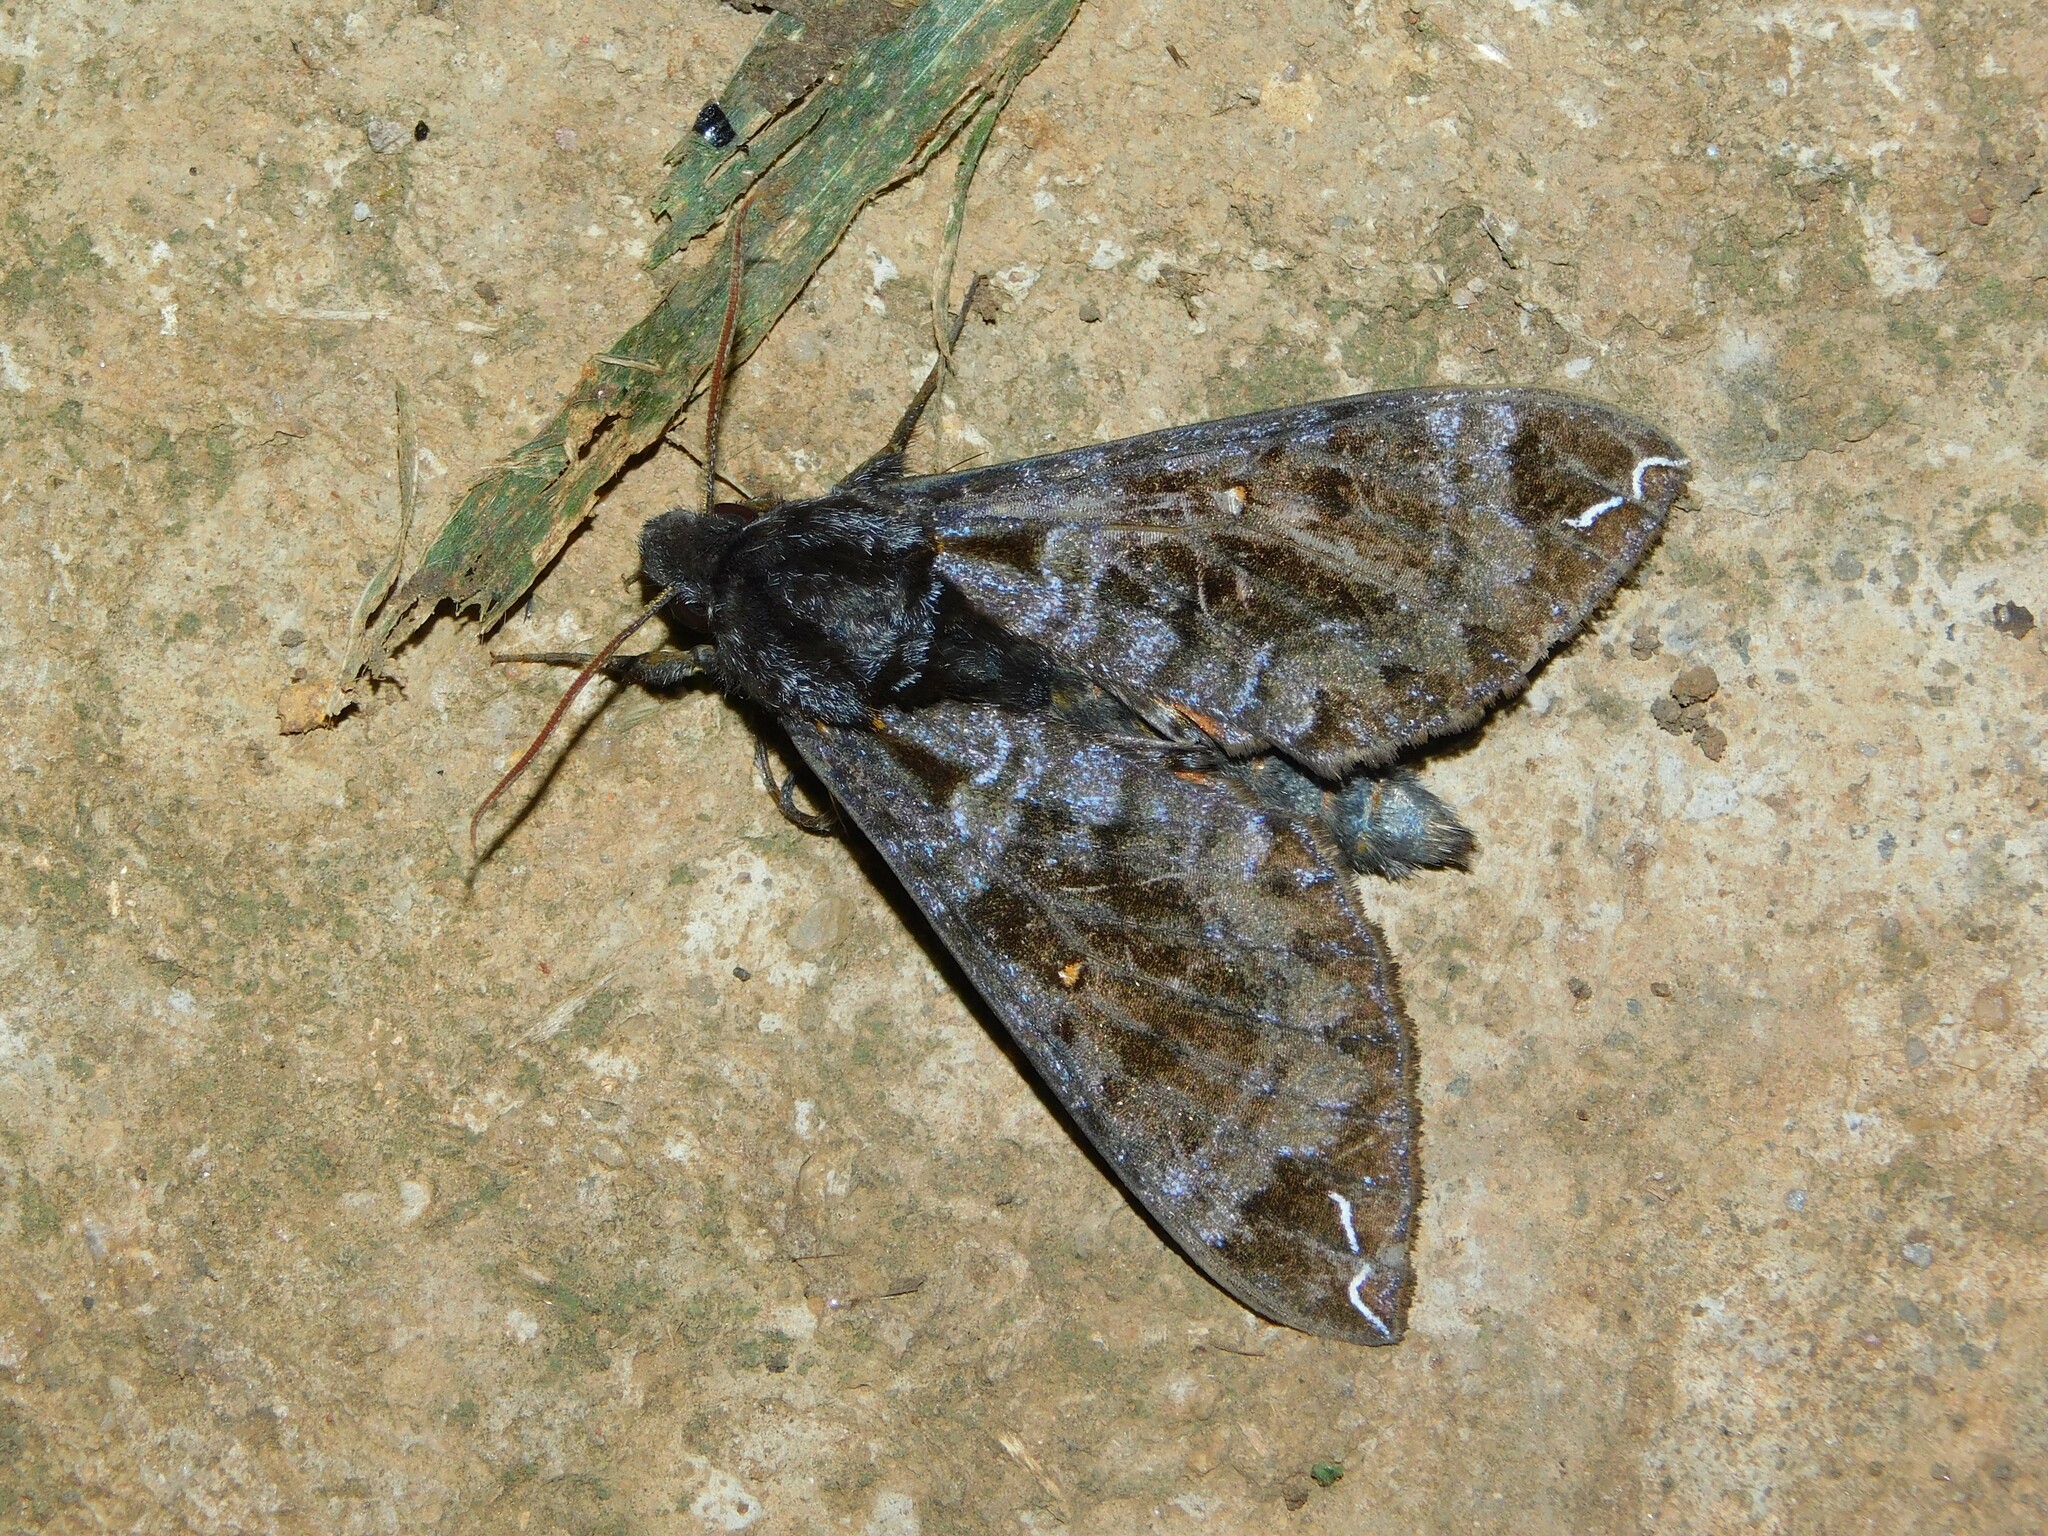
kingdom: Animalia
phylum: Arthropoda
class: Insecta
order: Lepidoptera
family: Sphingidae
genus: Dovania
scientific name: Dovania poecila
